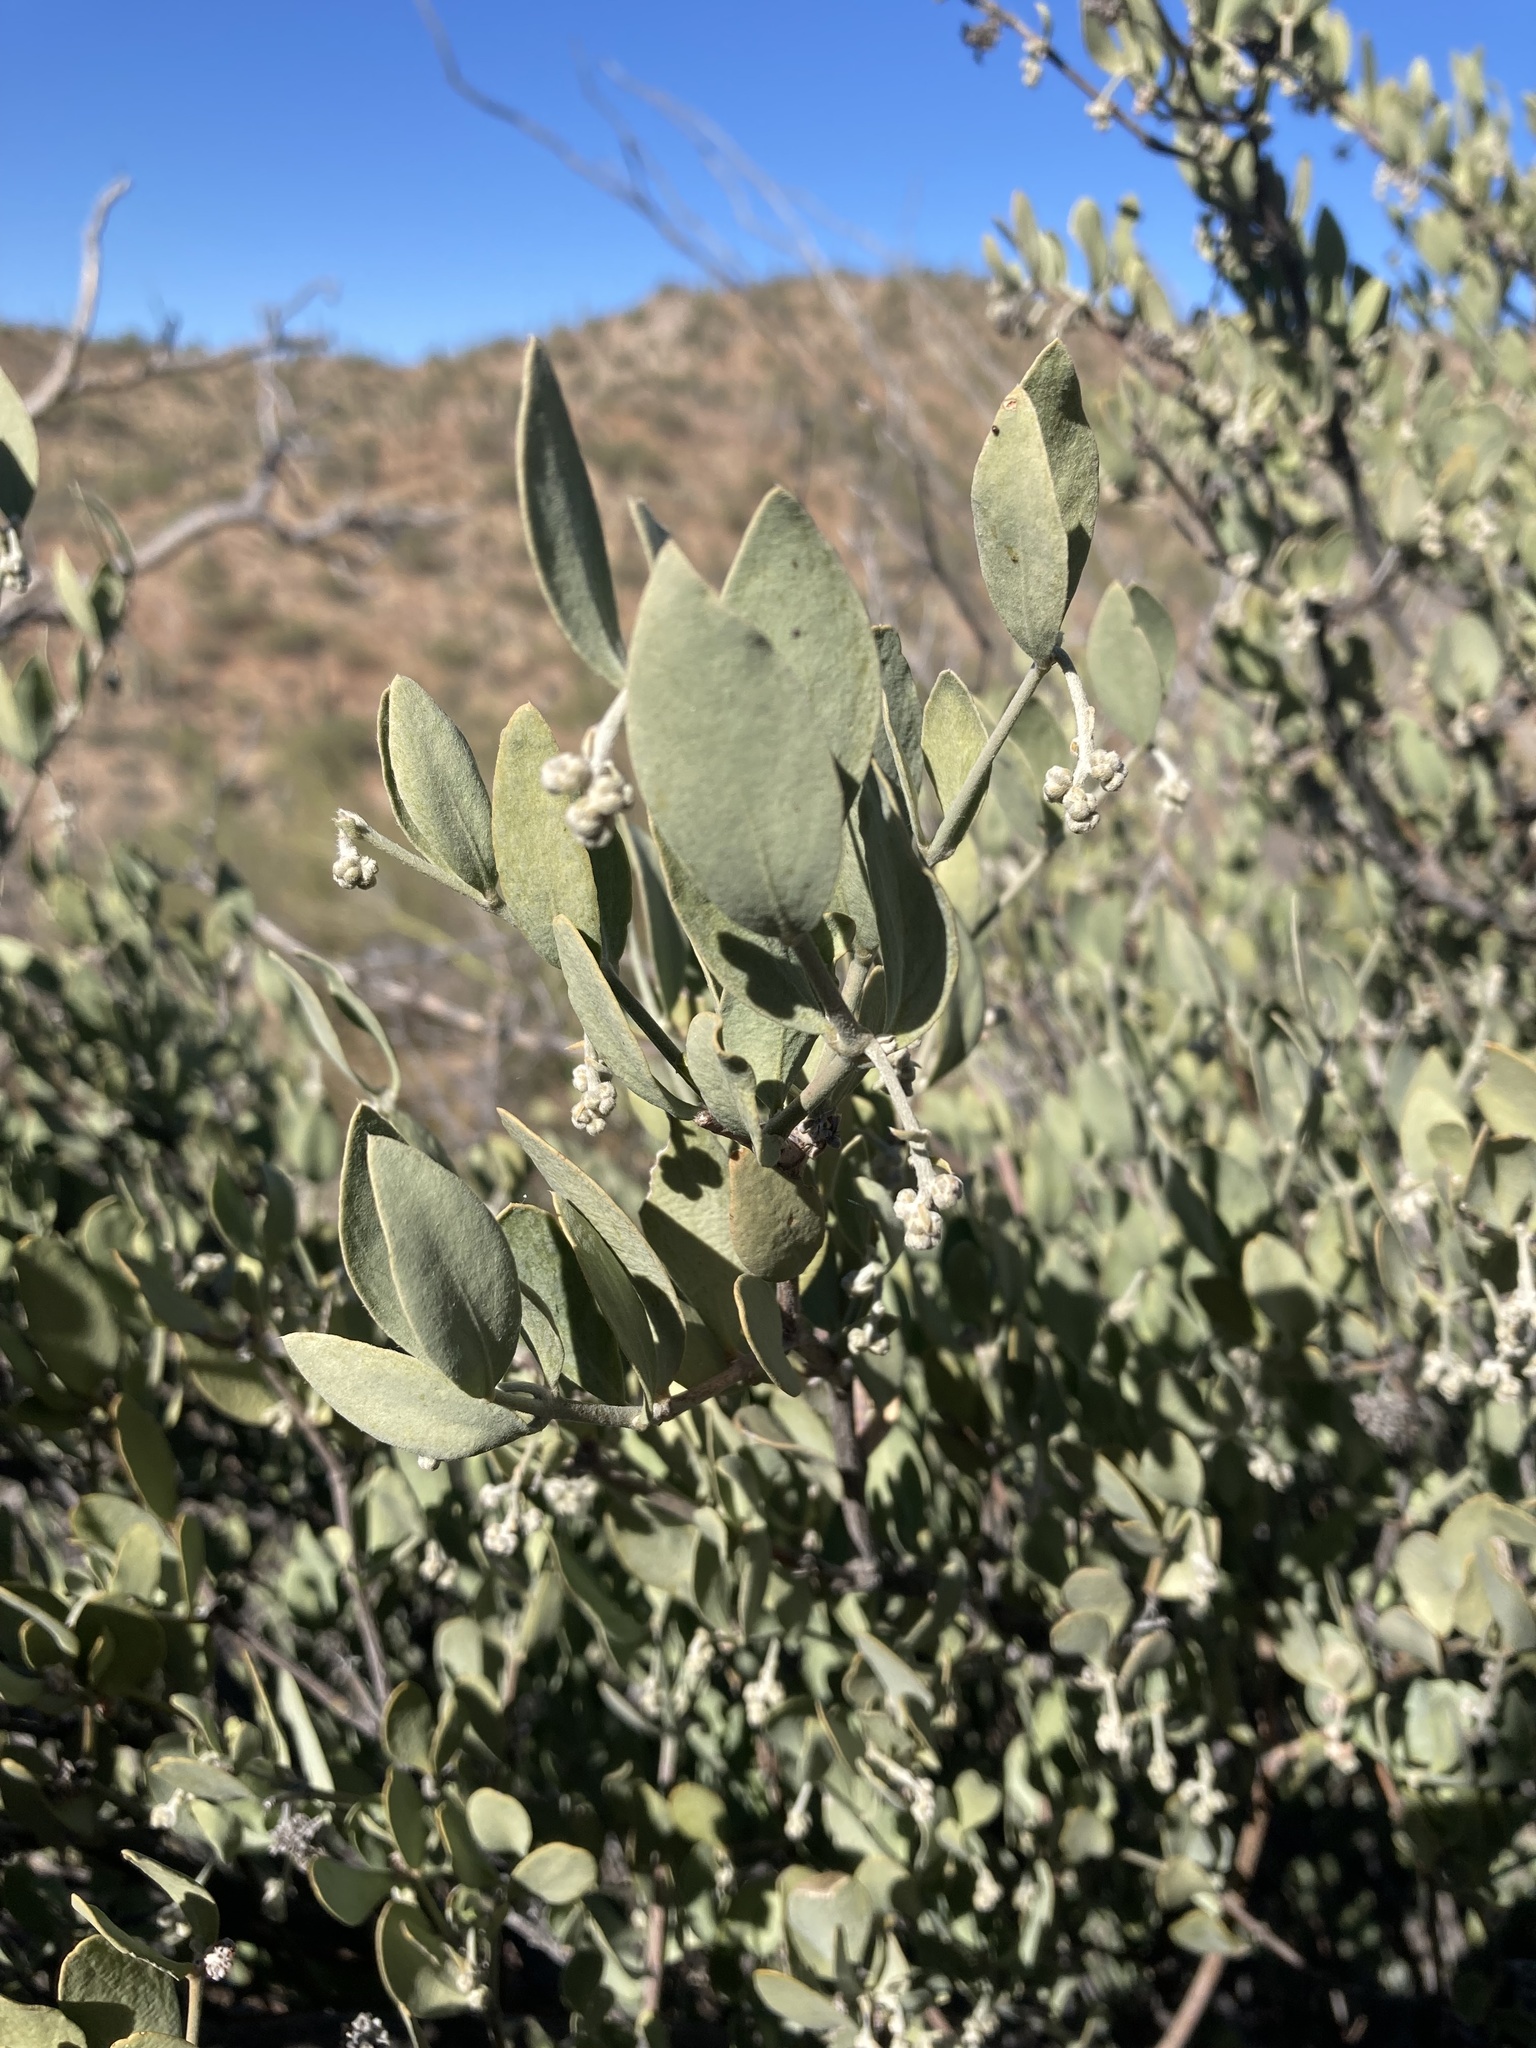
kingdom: Plantae
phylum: Tracheophyta
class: Magnoliopsida
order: Caryophyllales
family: Simmondsiaceae
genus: Simmondsia
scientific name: Simmondsia chinensis
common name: Jojoba
